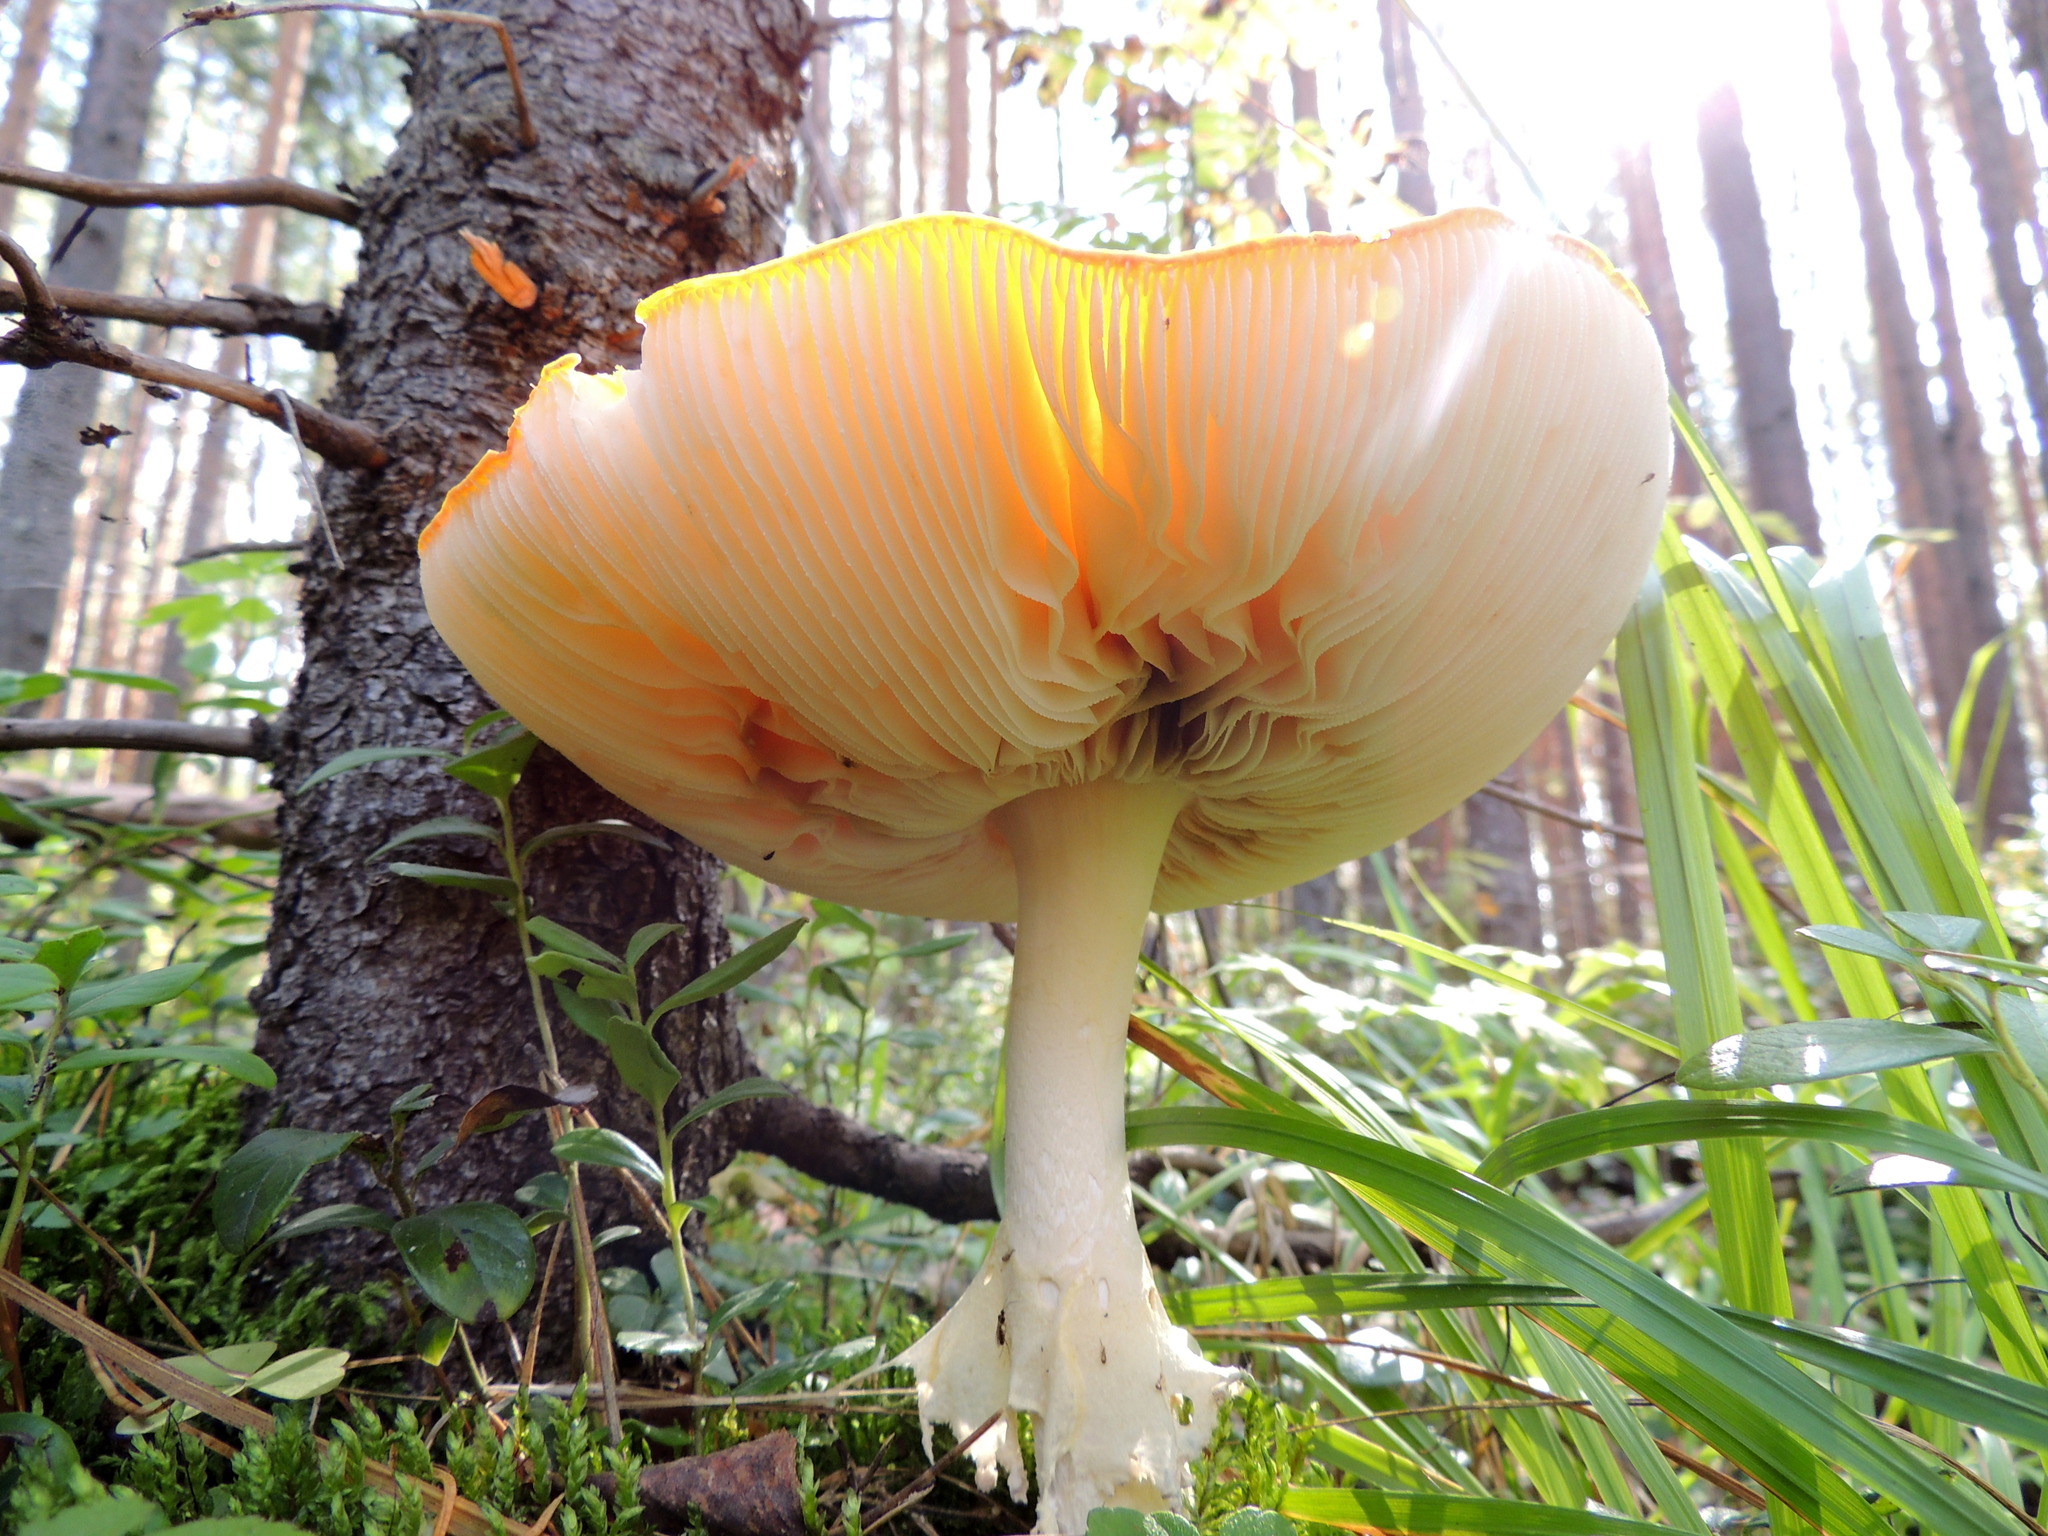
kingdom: Fungi
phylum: Basidiomycota
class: Agaricomycetes
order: Agaricales
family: Amanitaceae
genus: Amanita
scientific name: Amanita muscaria
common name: Fly agaric
